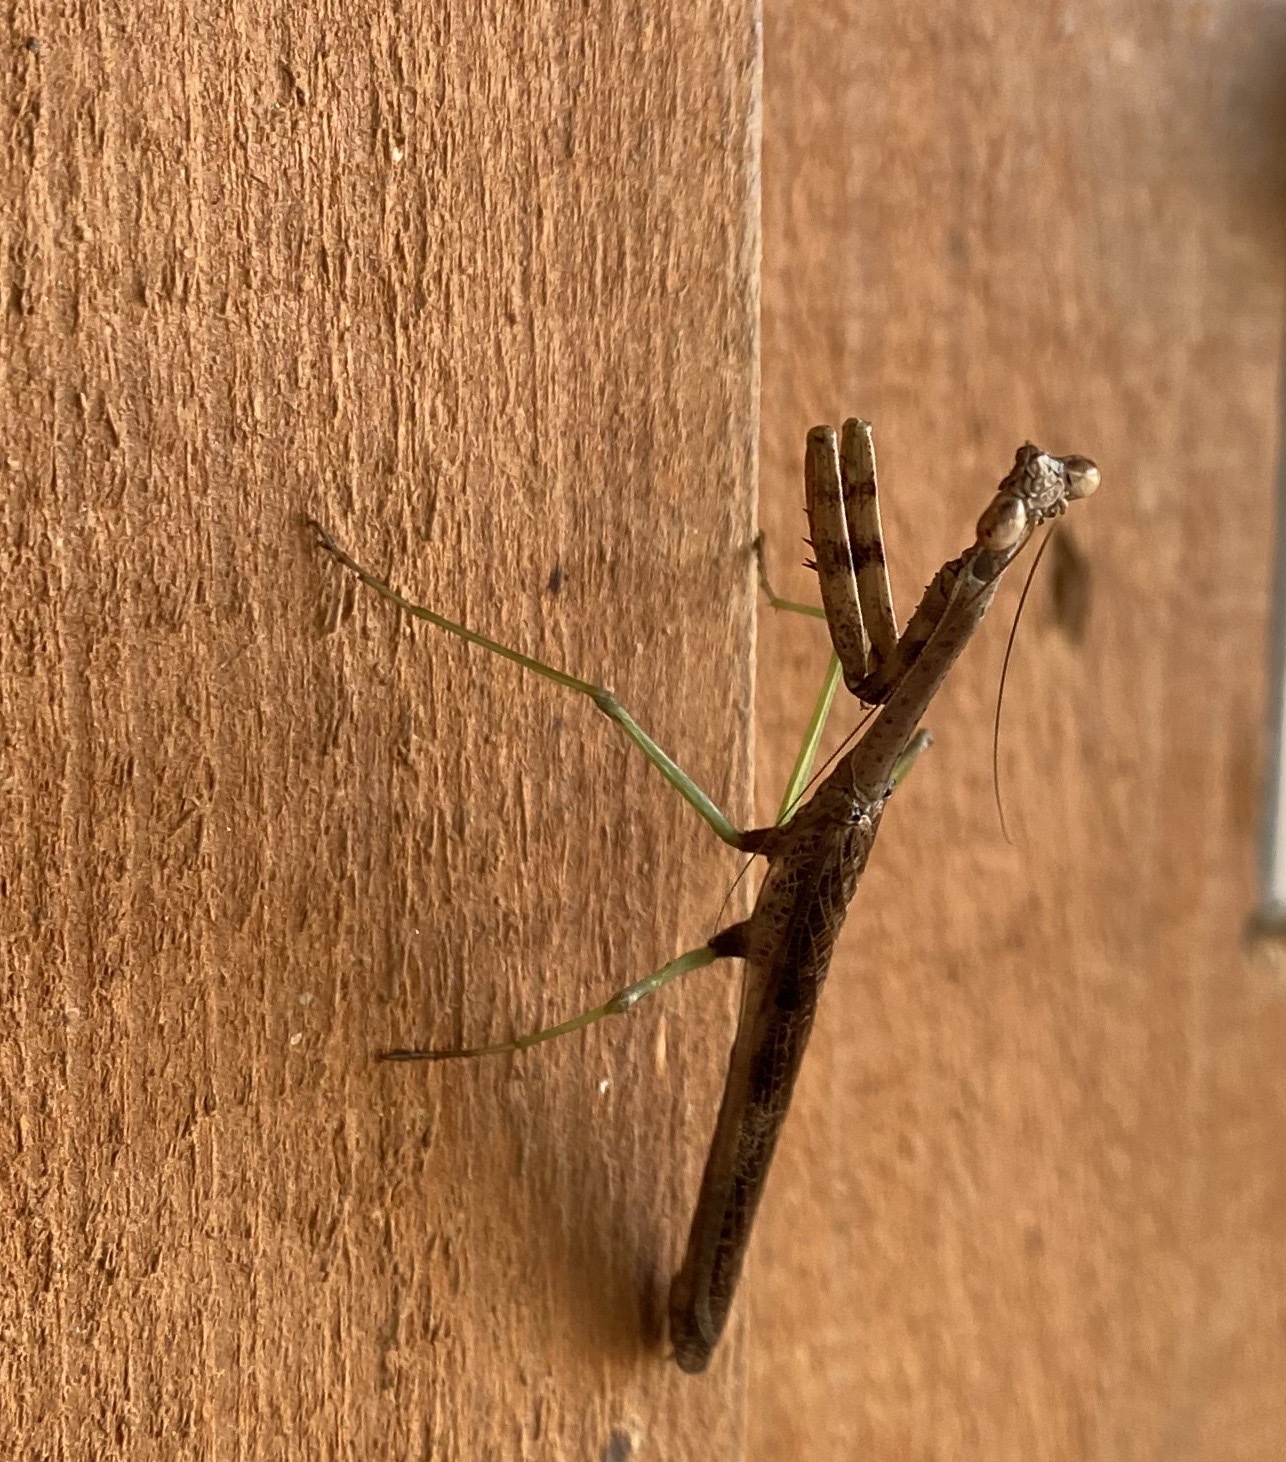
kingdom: Animalia
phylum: Arthropoda
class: Insecta
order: Mantodea
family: Mantidae
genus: Stagmomantis
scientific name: Stagmomantis carolina
